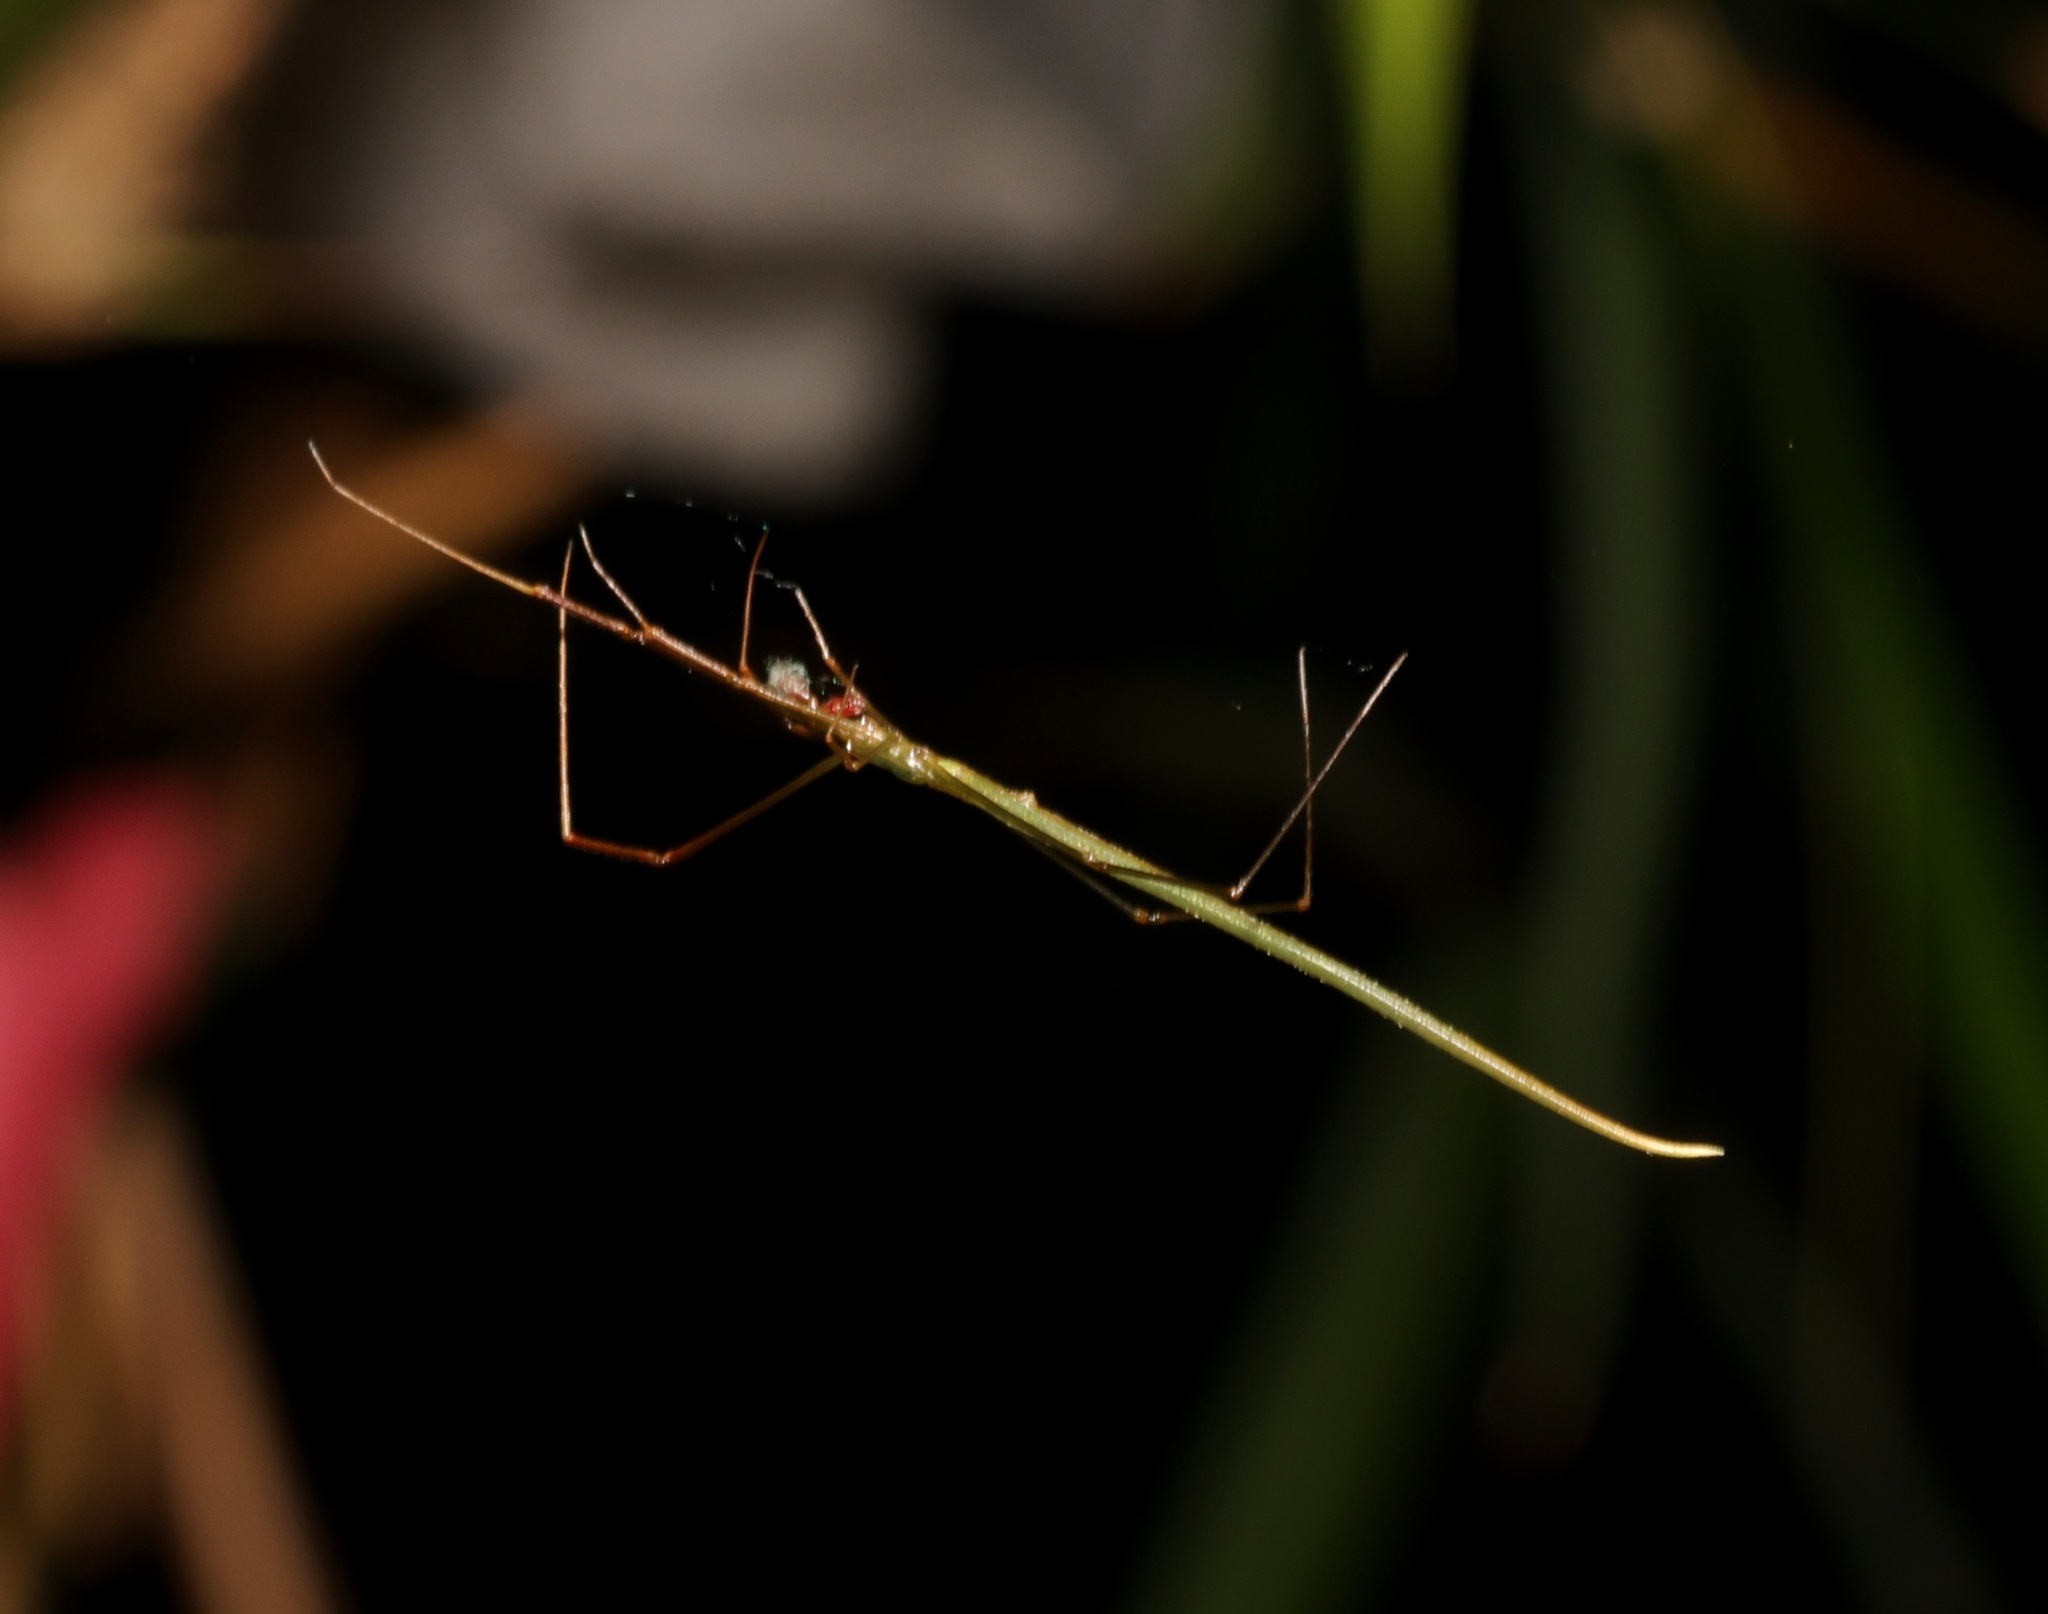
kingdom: Animalia
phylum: Arthropoda
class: Arachnida
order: Araneae
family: Theridiidae
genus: Ariamnes
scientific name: Ariamnes cylindrogaster
